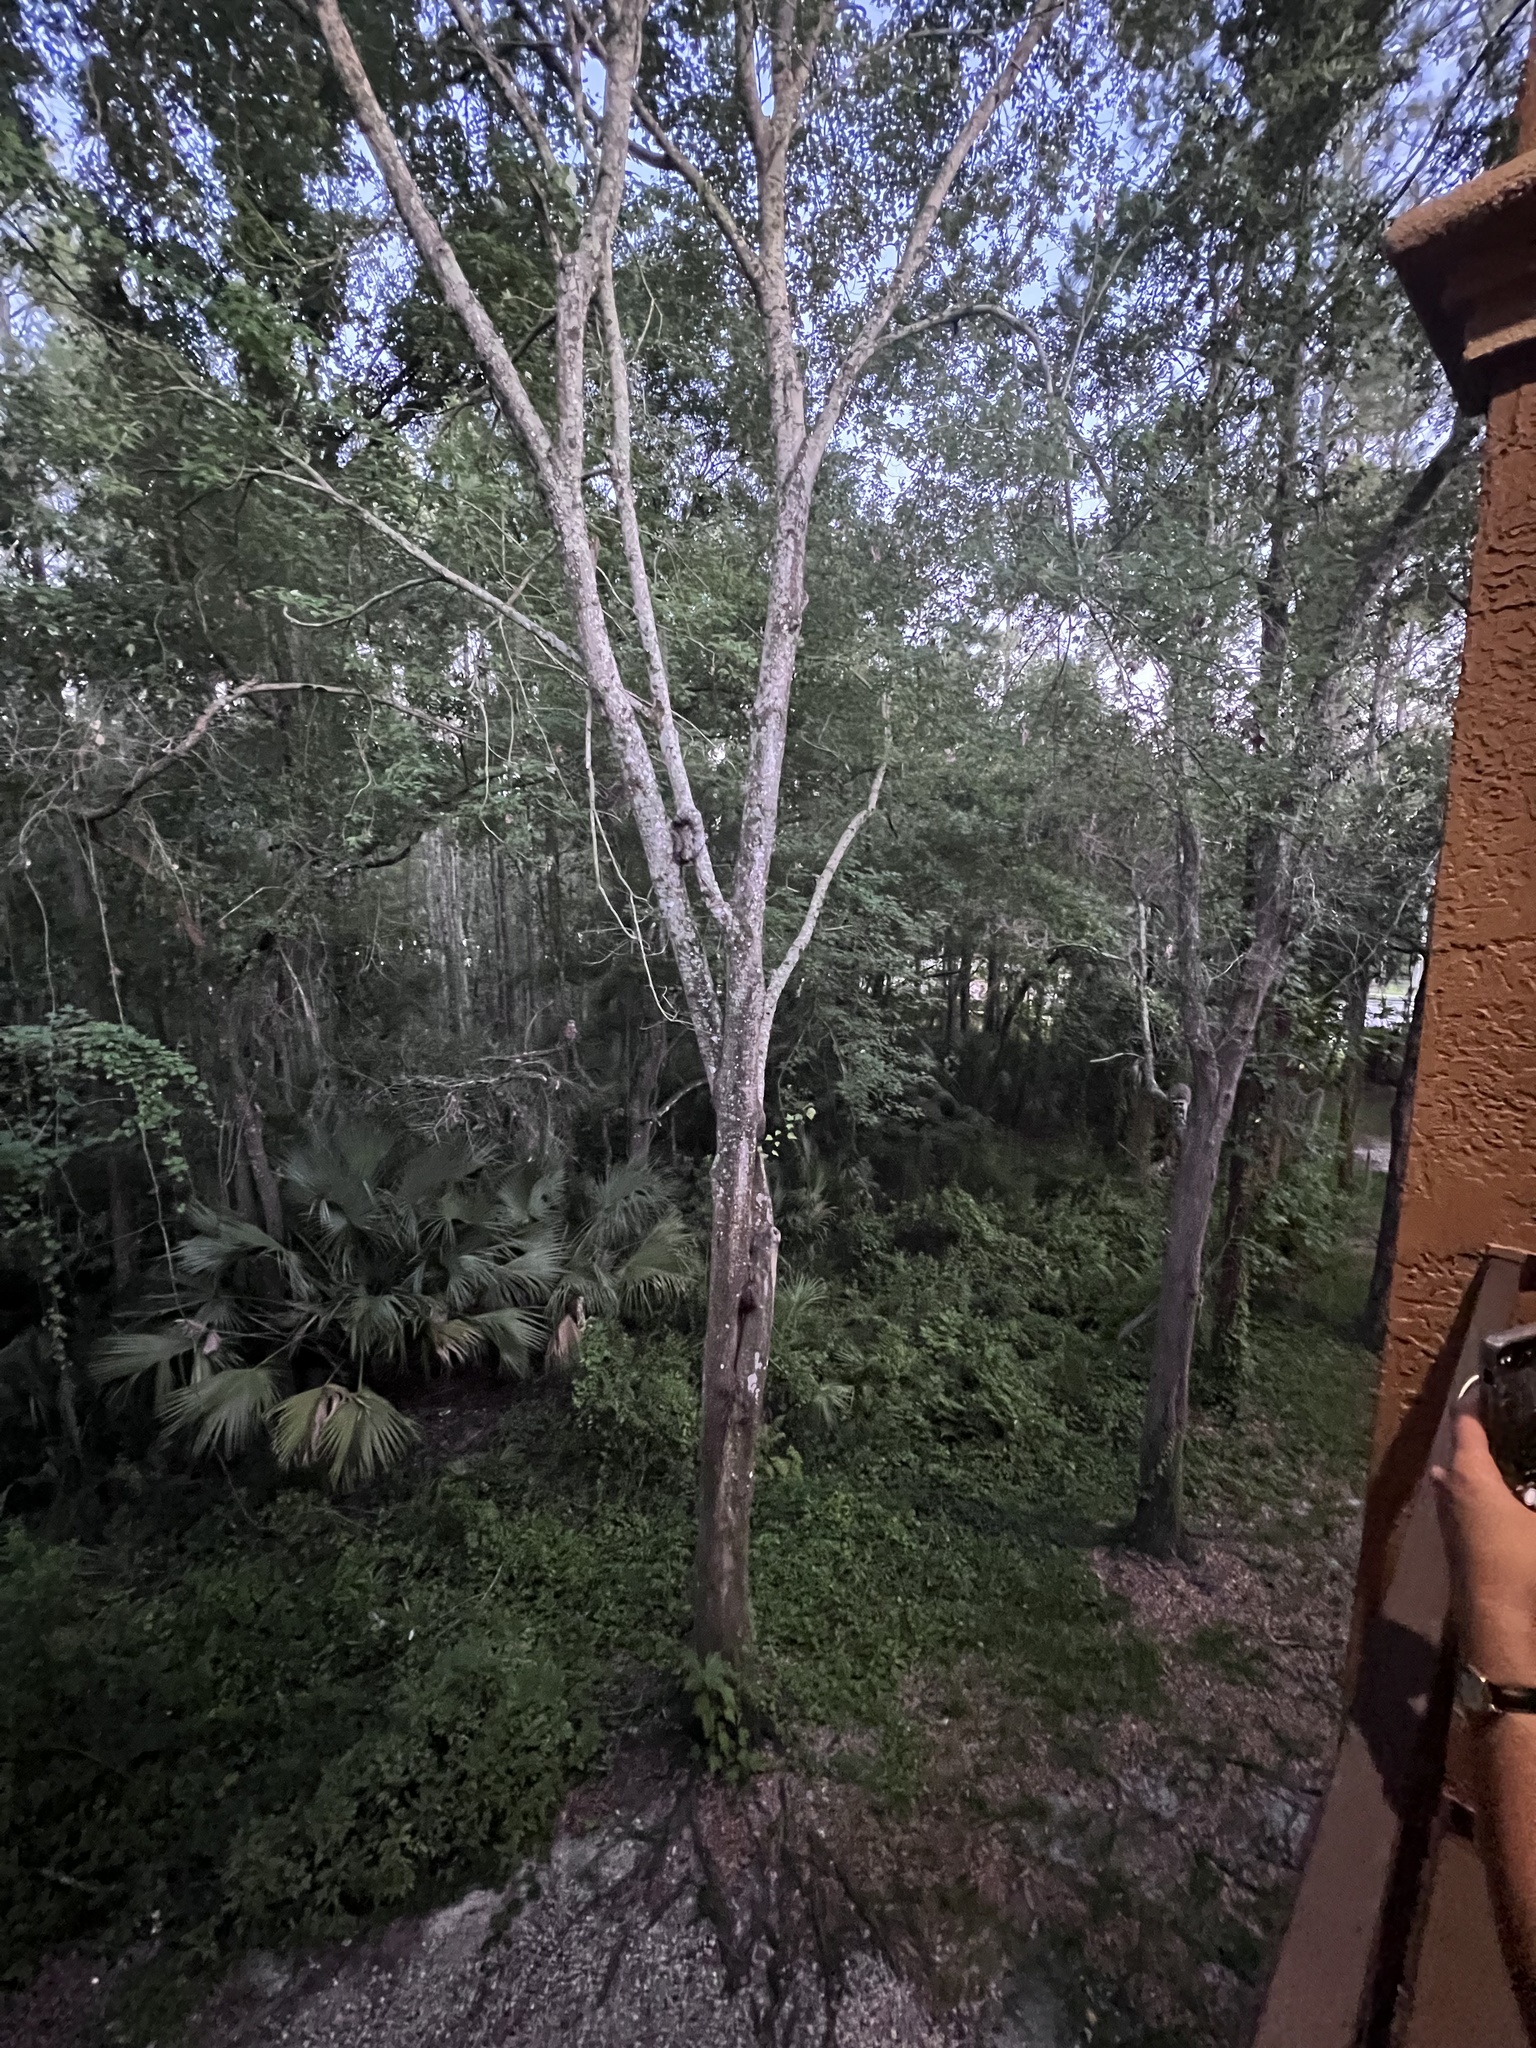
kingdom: Animalia
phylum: Chordata
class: Mammalia
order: Carnivora
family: Procyonidae
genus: Procyon
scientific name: Procyon lotor
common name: Raccoon
